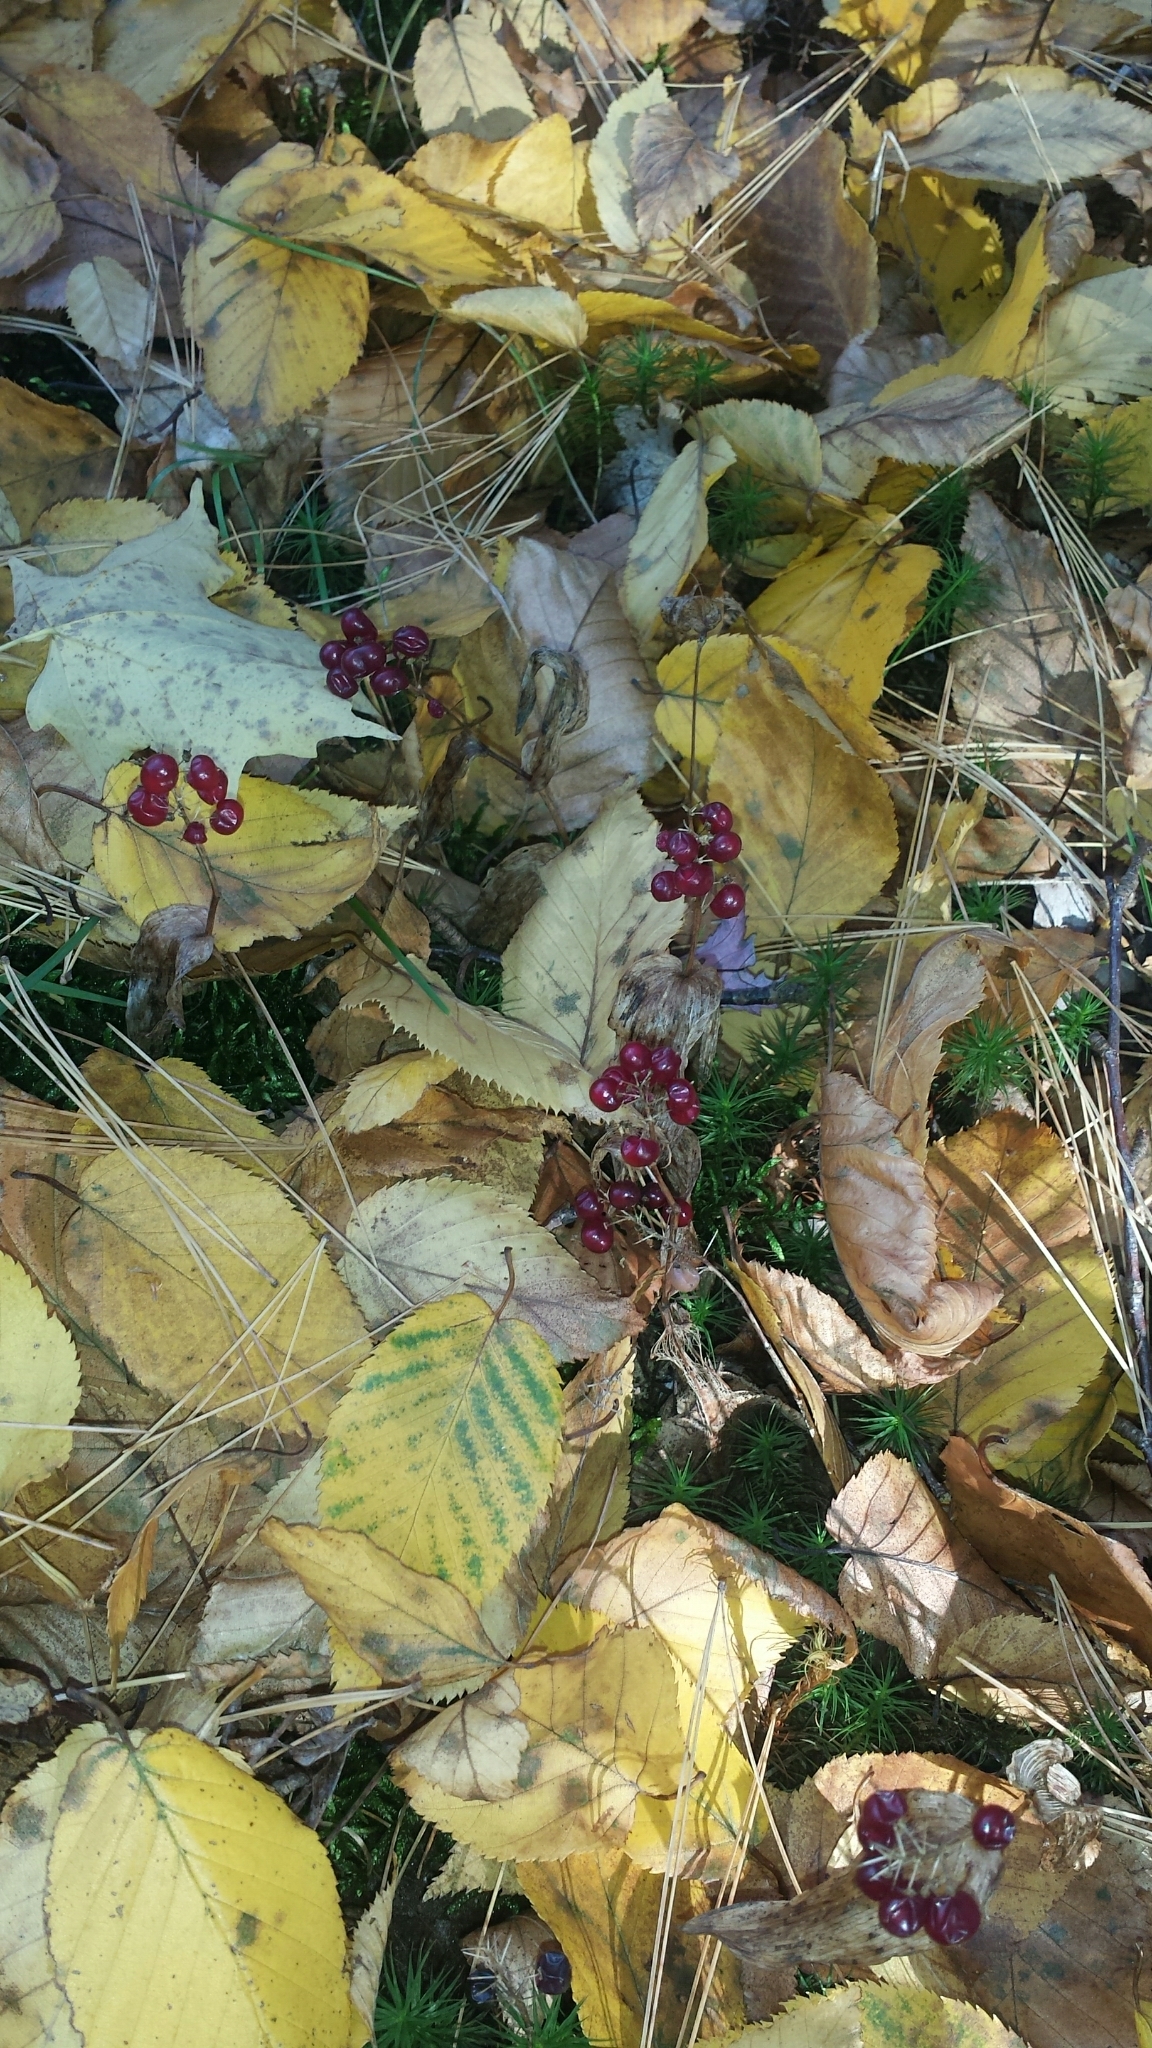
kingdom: Plantae
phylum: Tracheophyta
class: Liliopsida
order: Asparagales
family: Asparagaceae
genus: Maianthemum
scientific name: Maianthemum canadense
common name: False lily-of-the-valley
